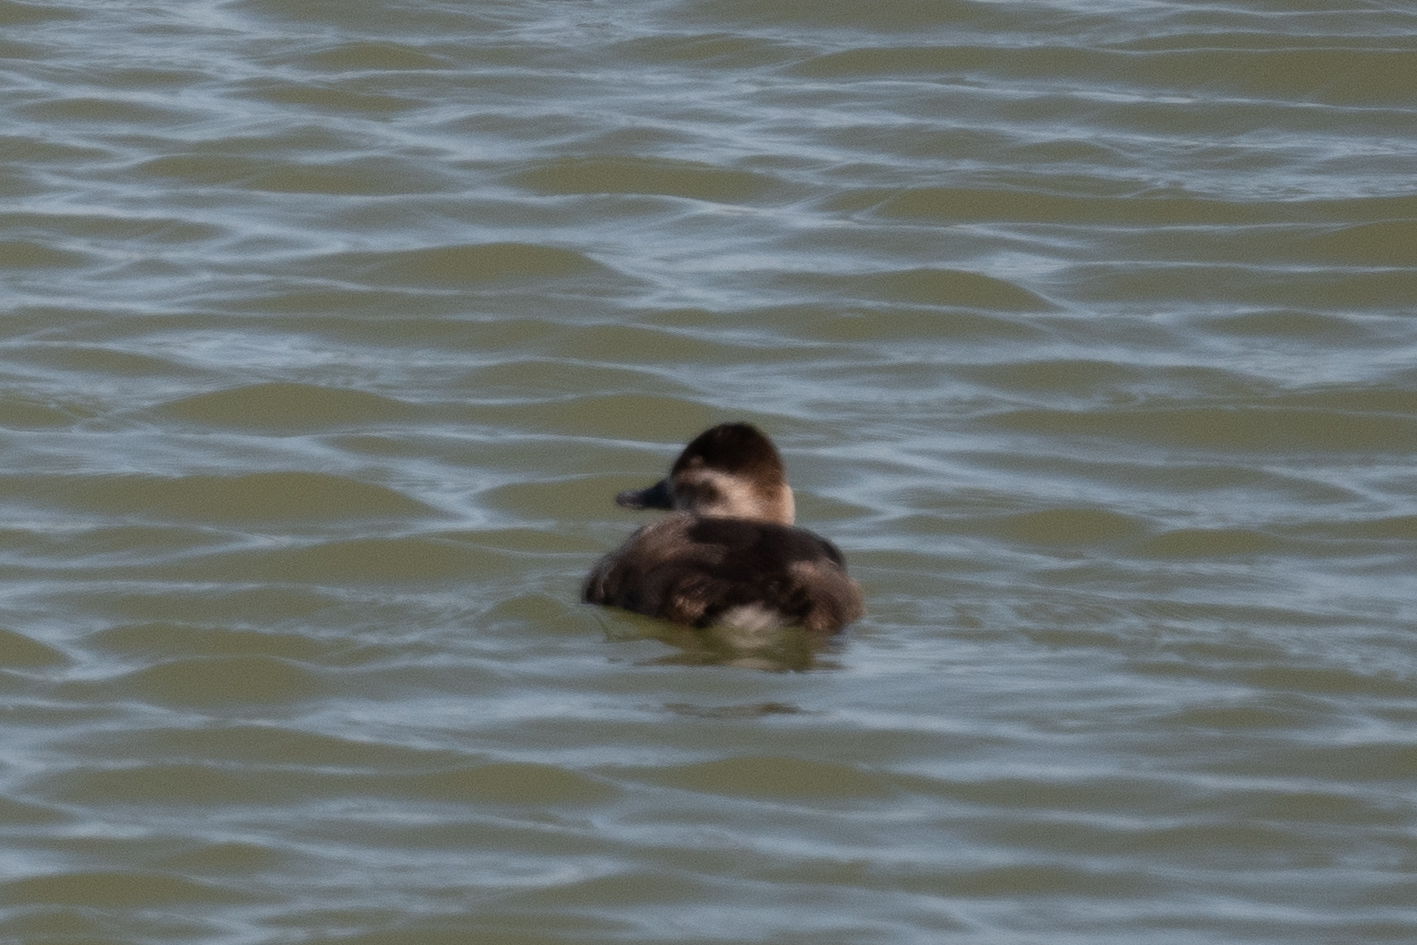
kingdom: Animalia
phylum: Chordata
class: Aves
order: Anseriformes
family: Anatidae
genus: Oxyura
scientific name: Oxyura jamaicensis
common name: Ruddy duck
